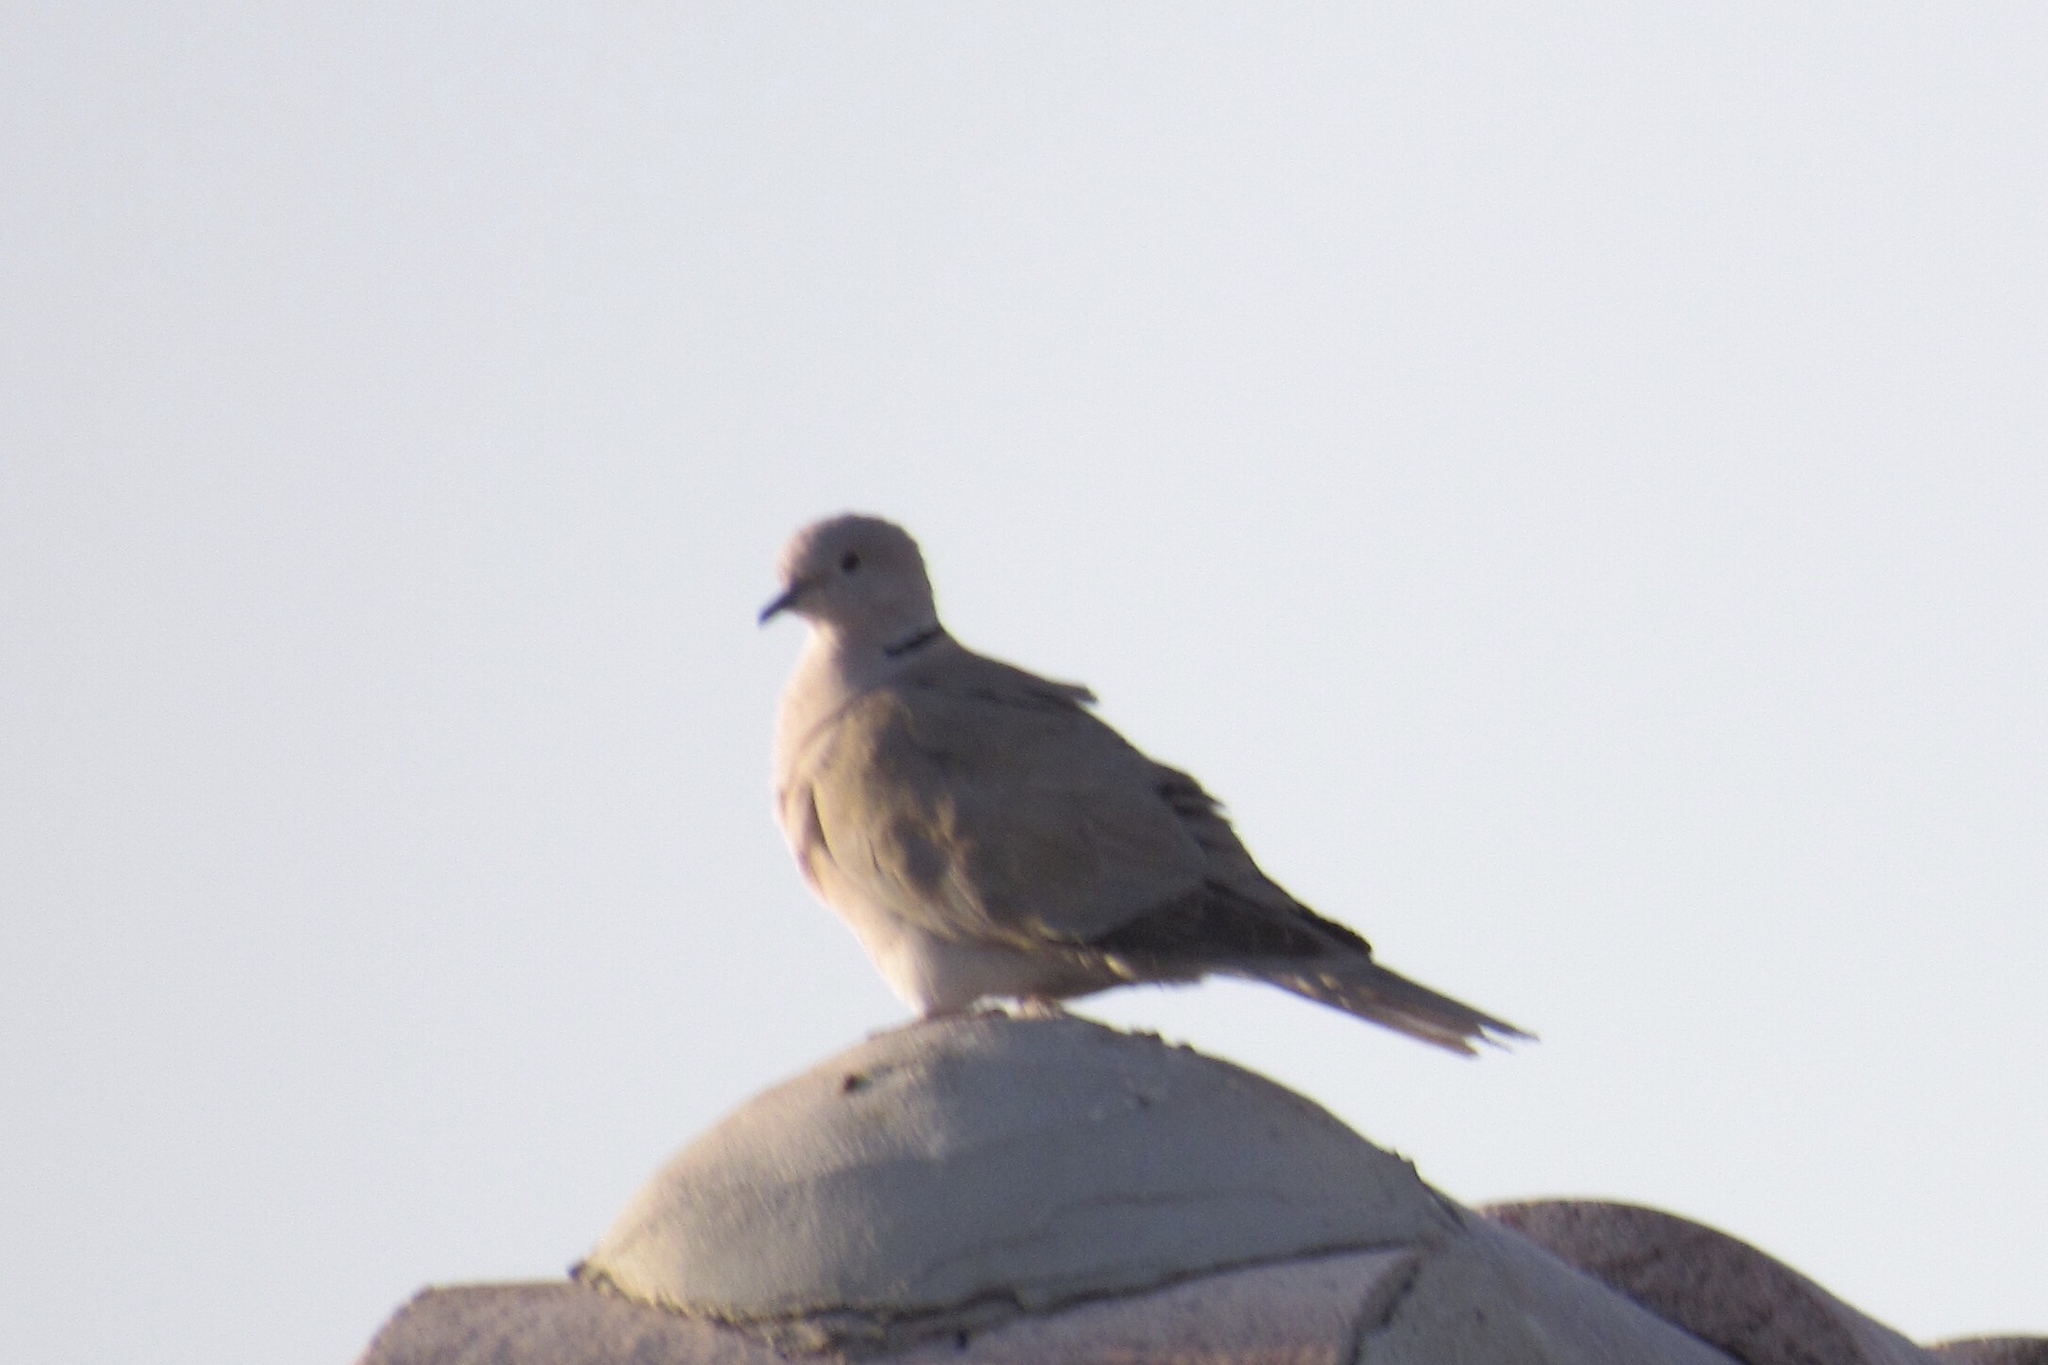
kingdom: Animalia
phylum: Chordata
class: Aves
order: Columbiformes
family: Columbidae
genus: Streptopelia
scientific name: Streptopelia decaocto
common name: Eurasian collared dove
